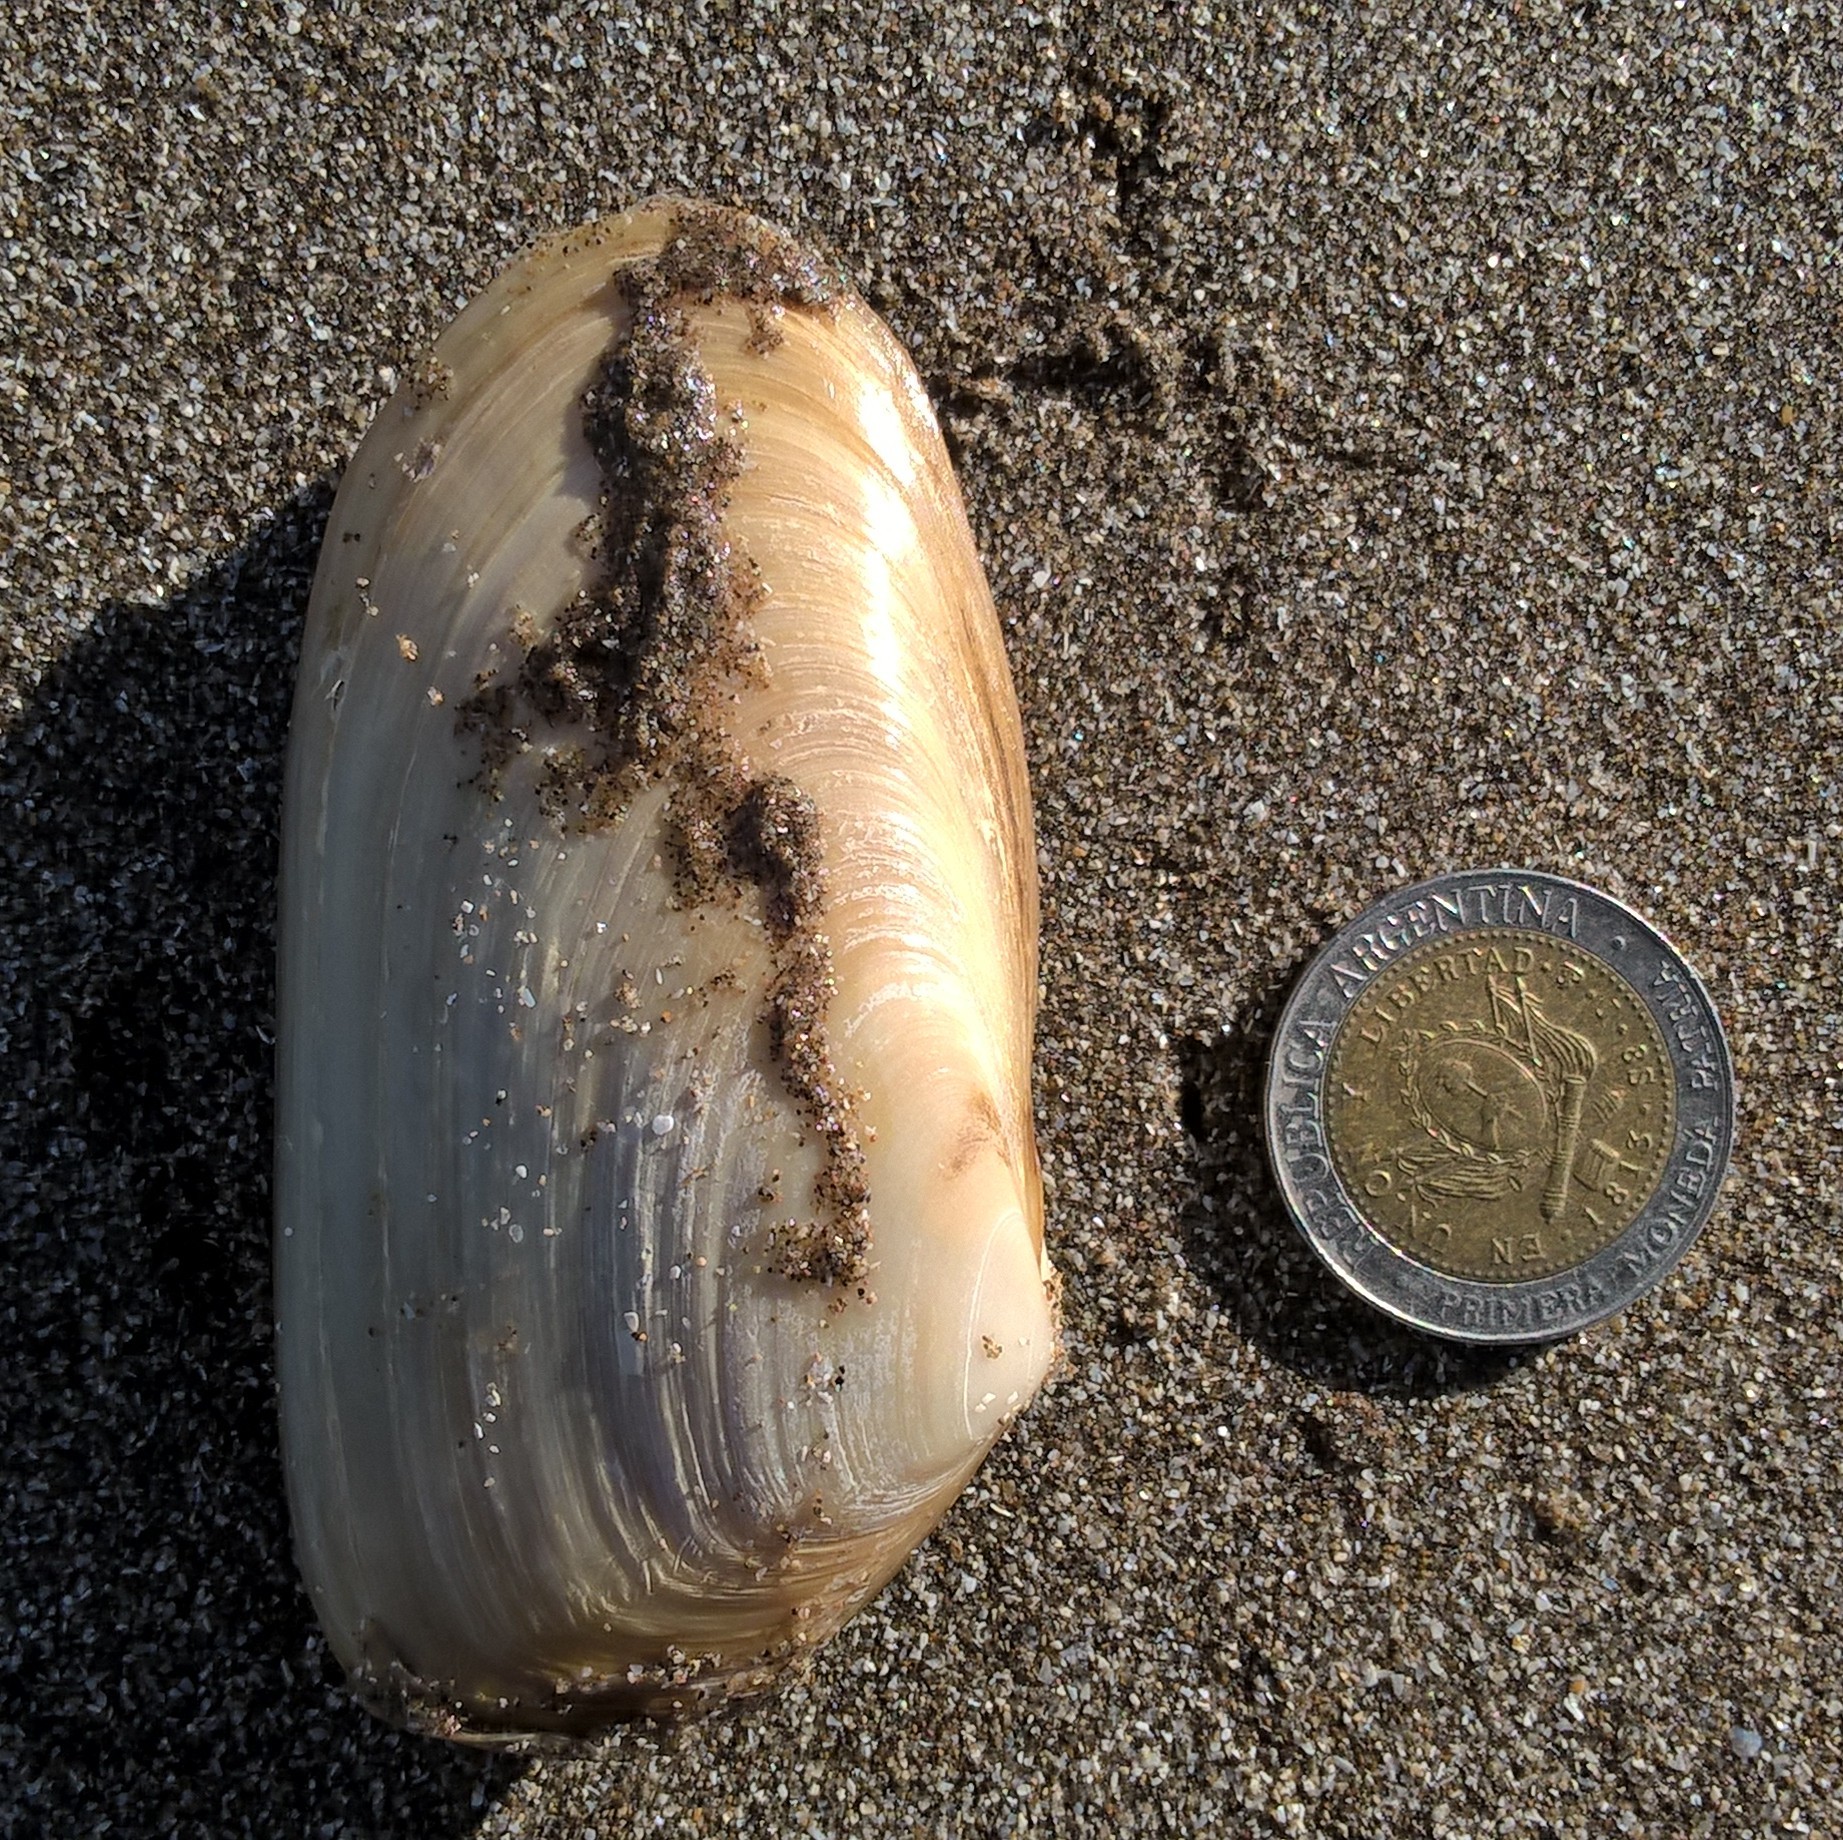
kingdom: Animalia
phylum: Mollusca
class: Bivalvia
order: Venerida
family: Mesodesmatidae
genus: Amarilladesma
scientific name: Amarilladesma mactroides
